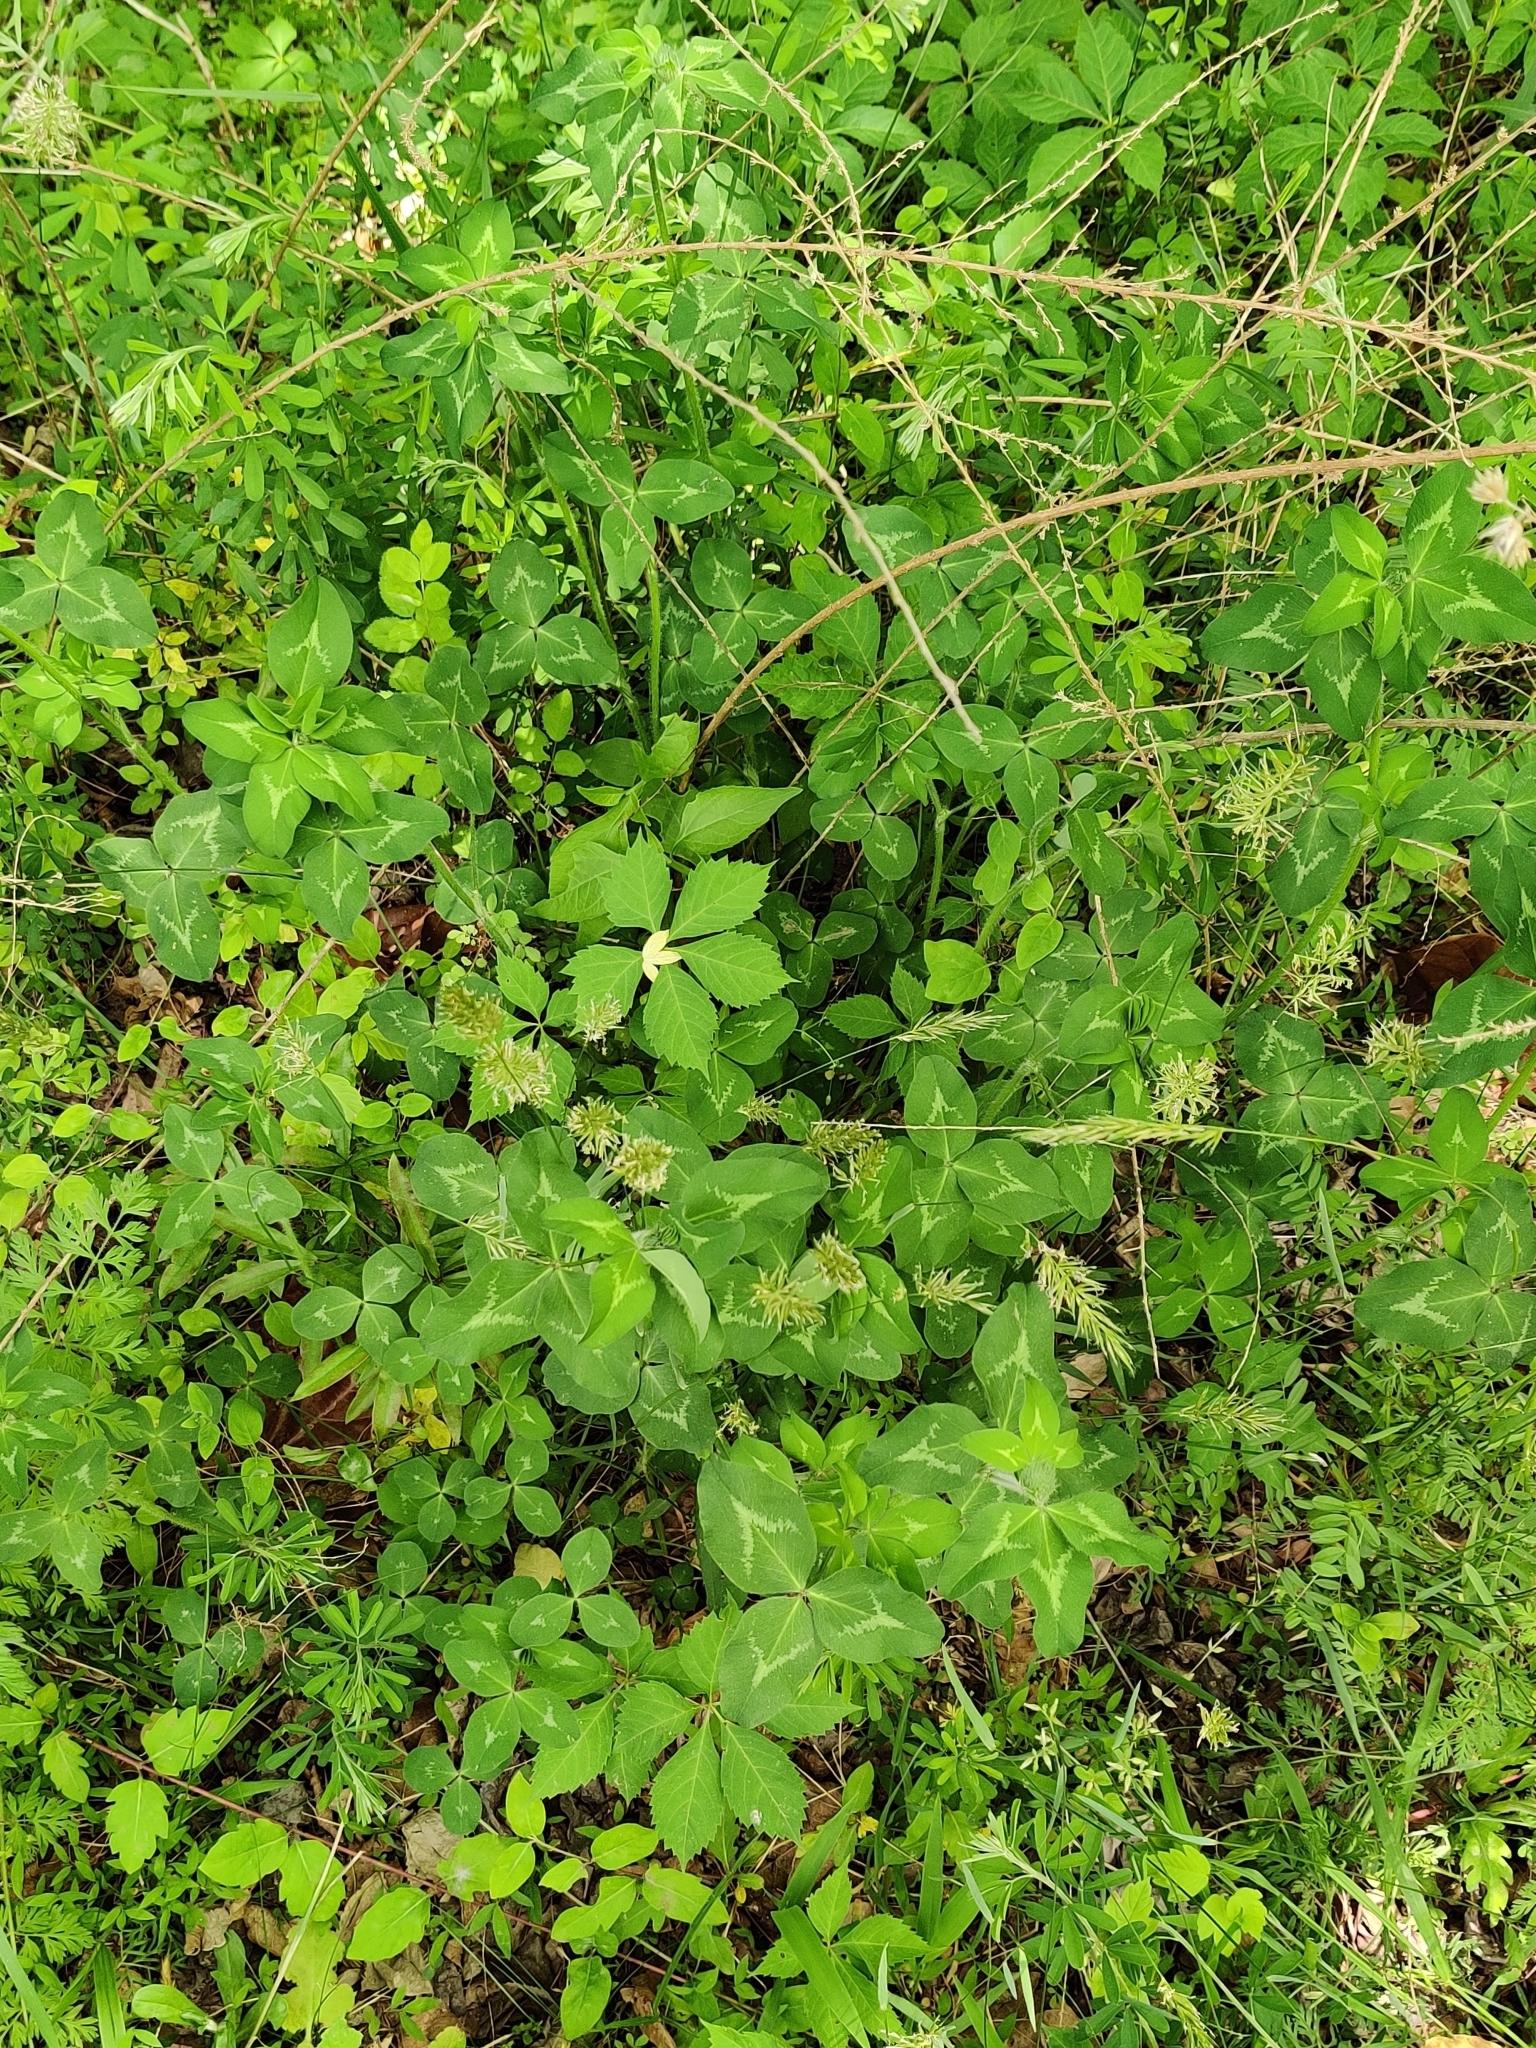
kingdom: Plantae
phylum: Tracheophyta
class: Magnoliopsida
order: Fabales
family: Fabaceae
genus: Trifolium
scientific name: Trifolium pratense
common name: Red clover
